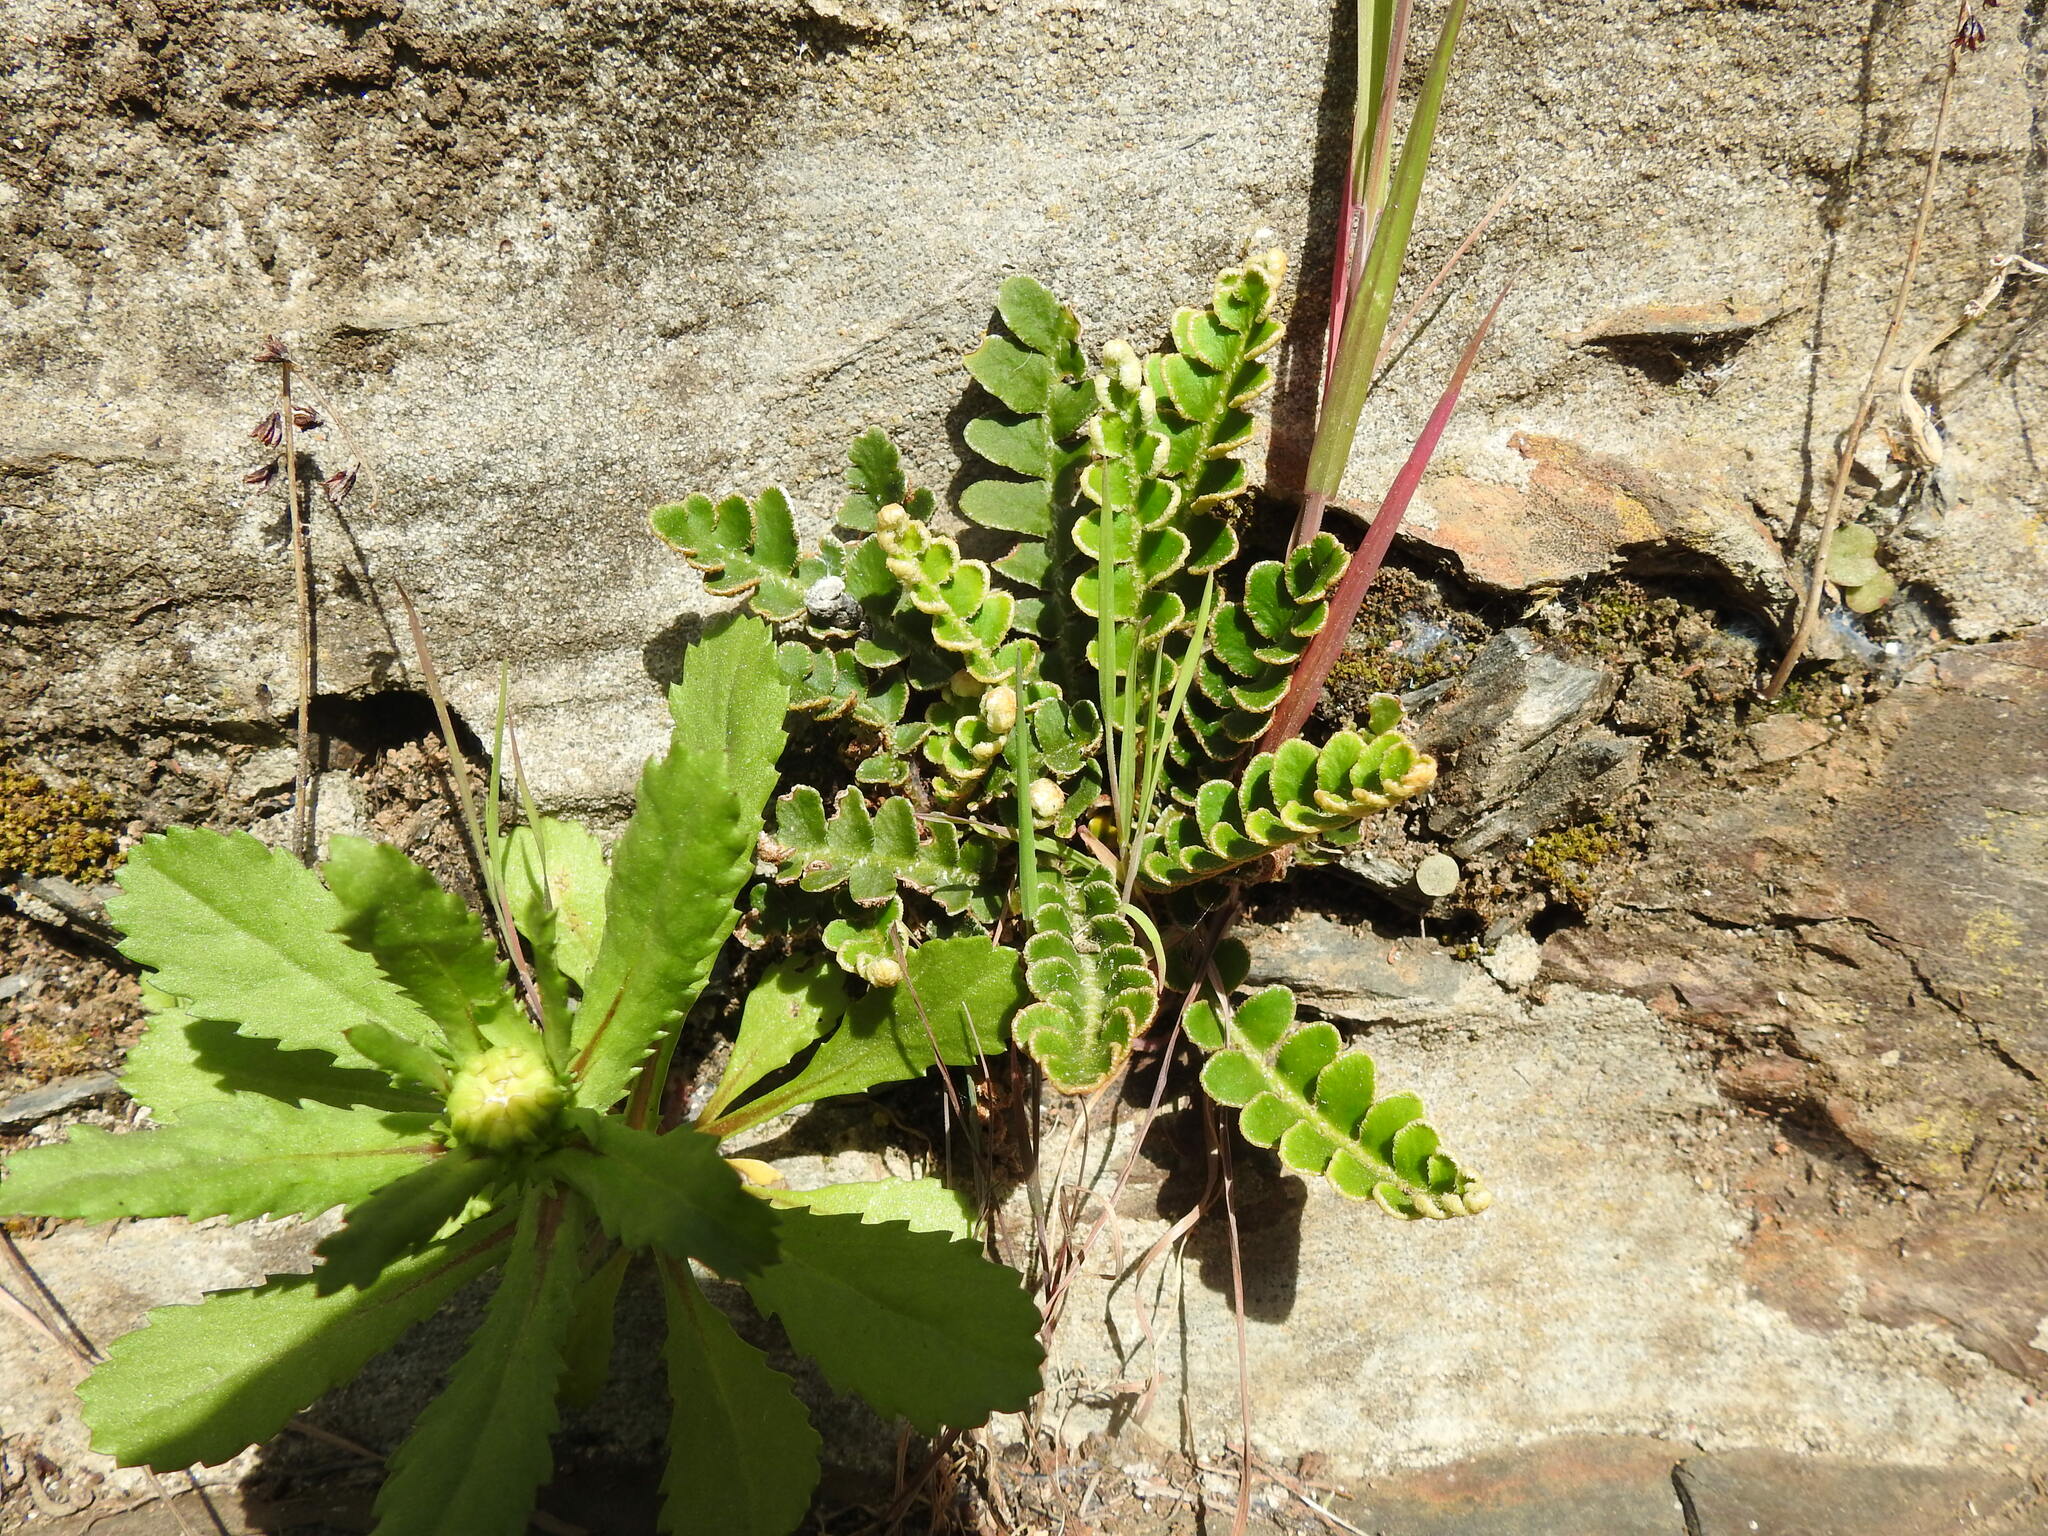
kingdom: Plantae
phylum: Tracheophyta
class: Polypodiopsida
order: Polypodiales
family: Aspleniaceae
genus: Asplenium
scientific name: Asplenium ceterach
